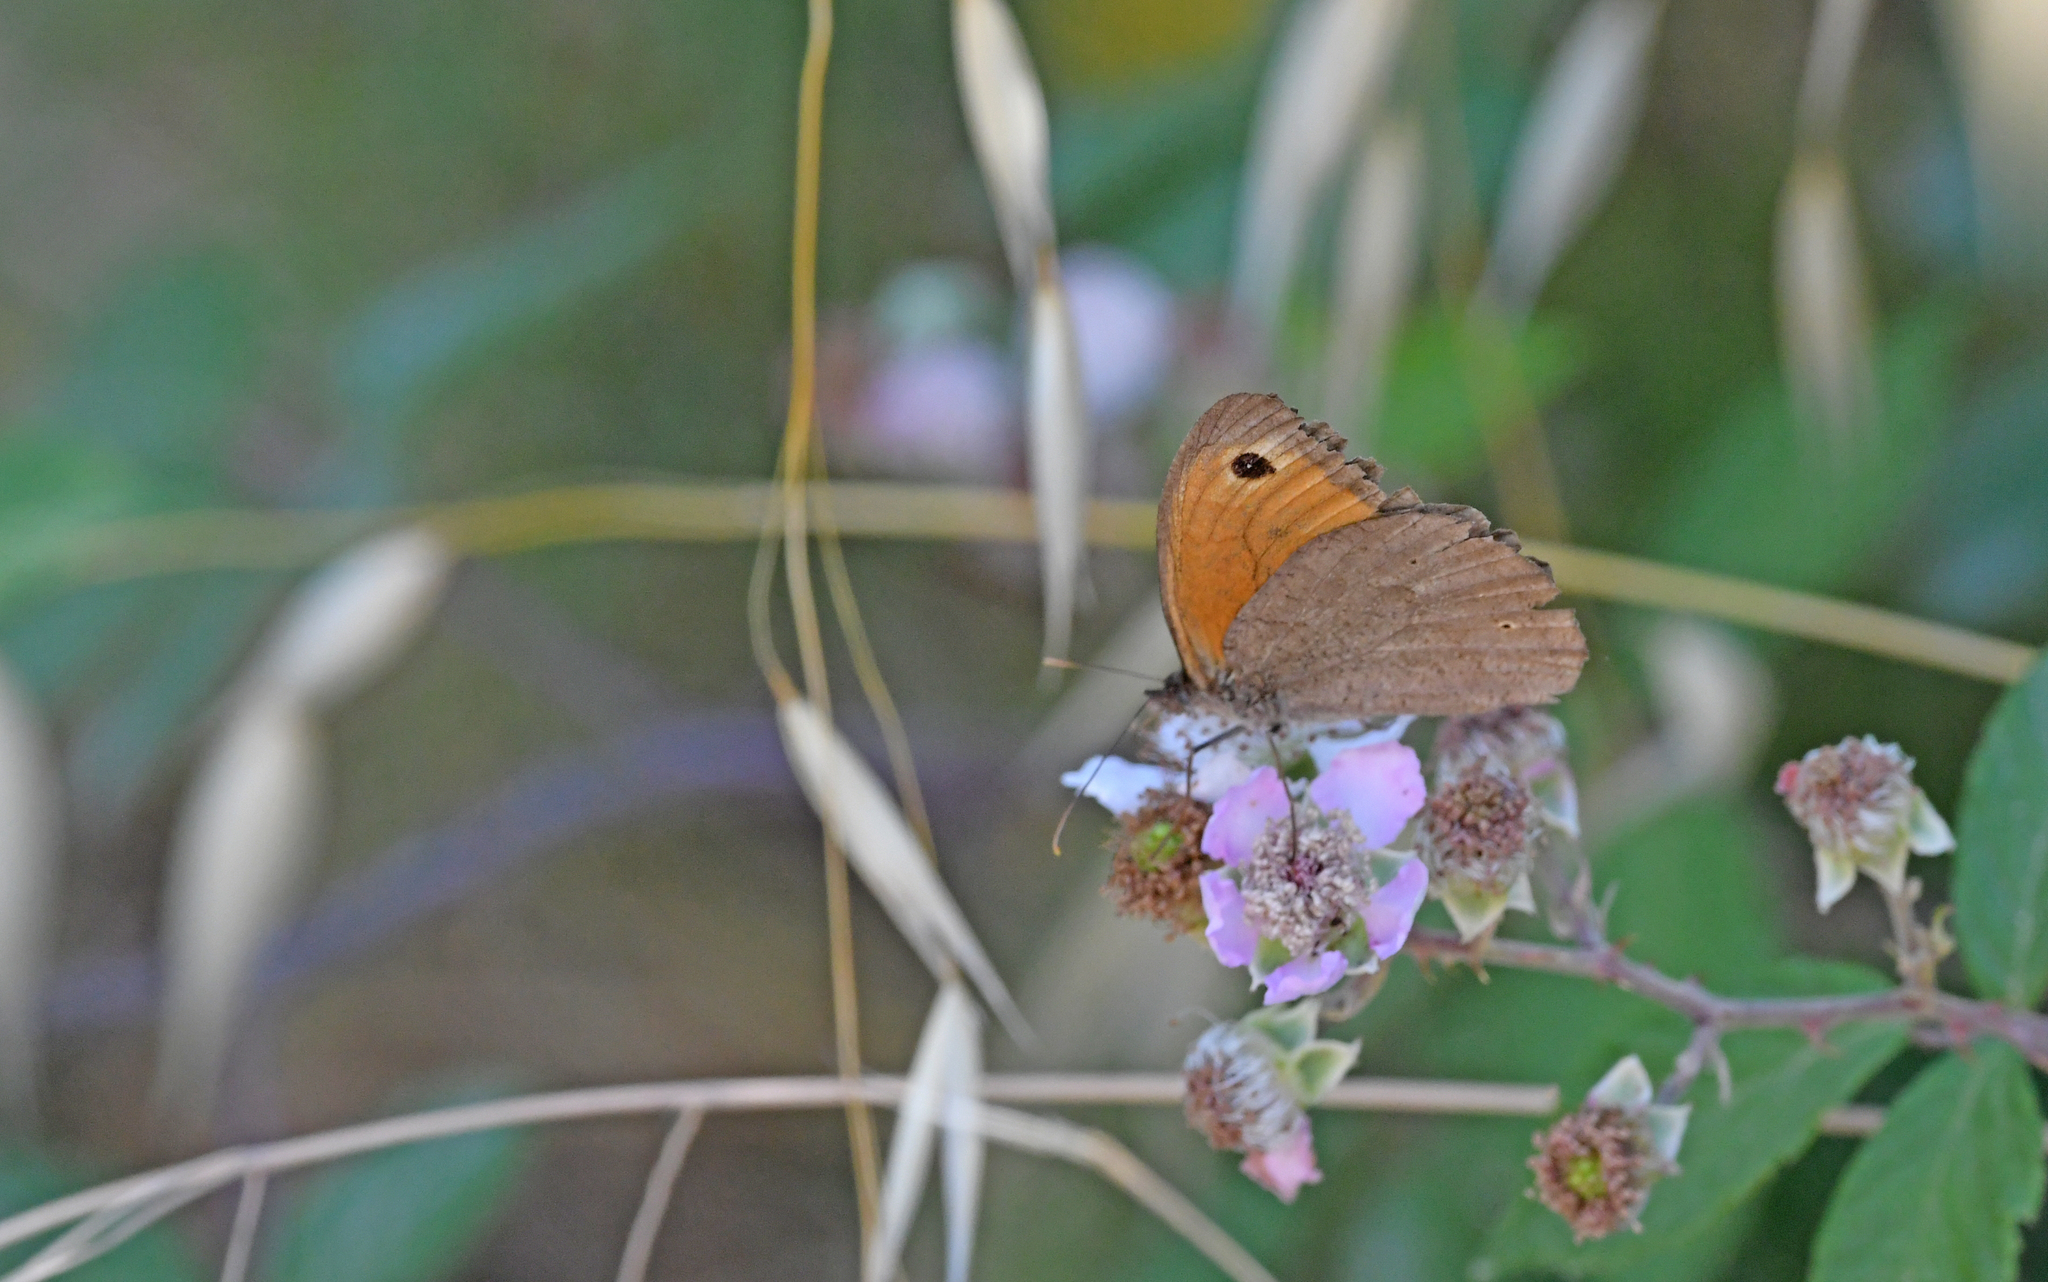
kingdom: Animalia
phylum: Arthropoda
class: Insecta
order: Lepidoptera
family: Nymphalidae
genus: Maniola
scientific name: Maniola jurtina
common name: Meadow brown
